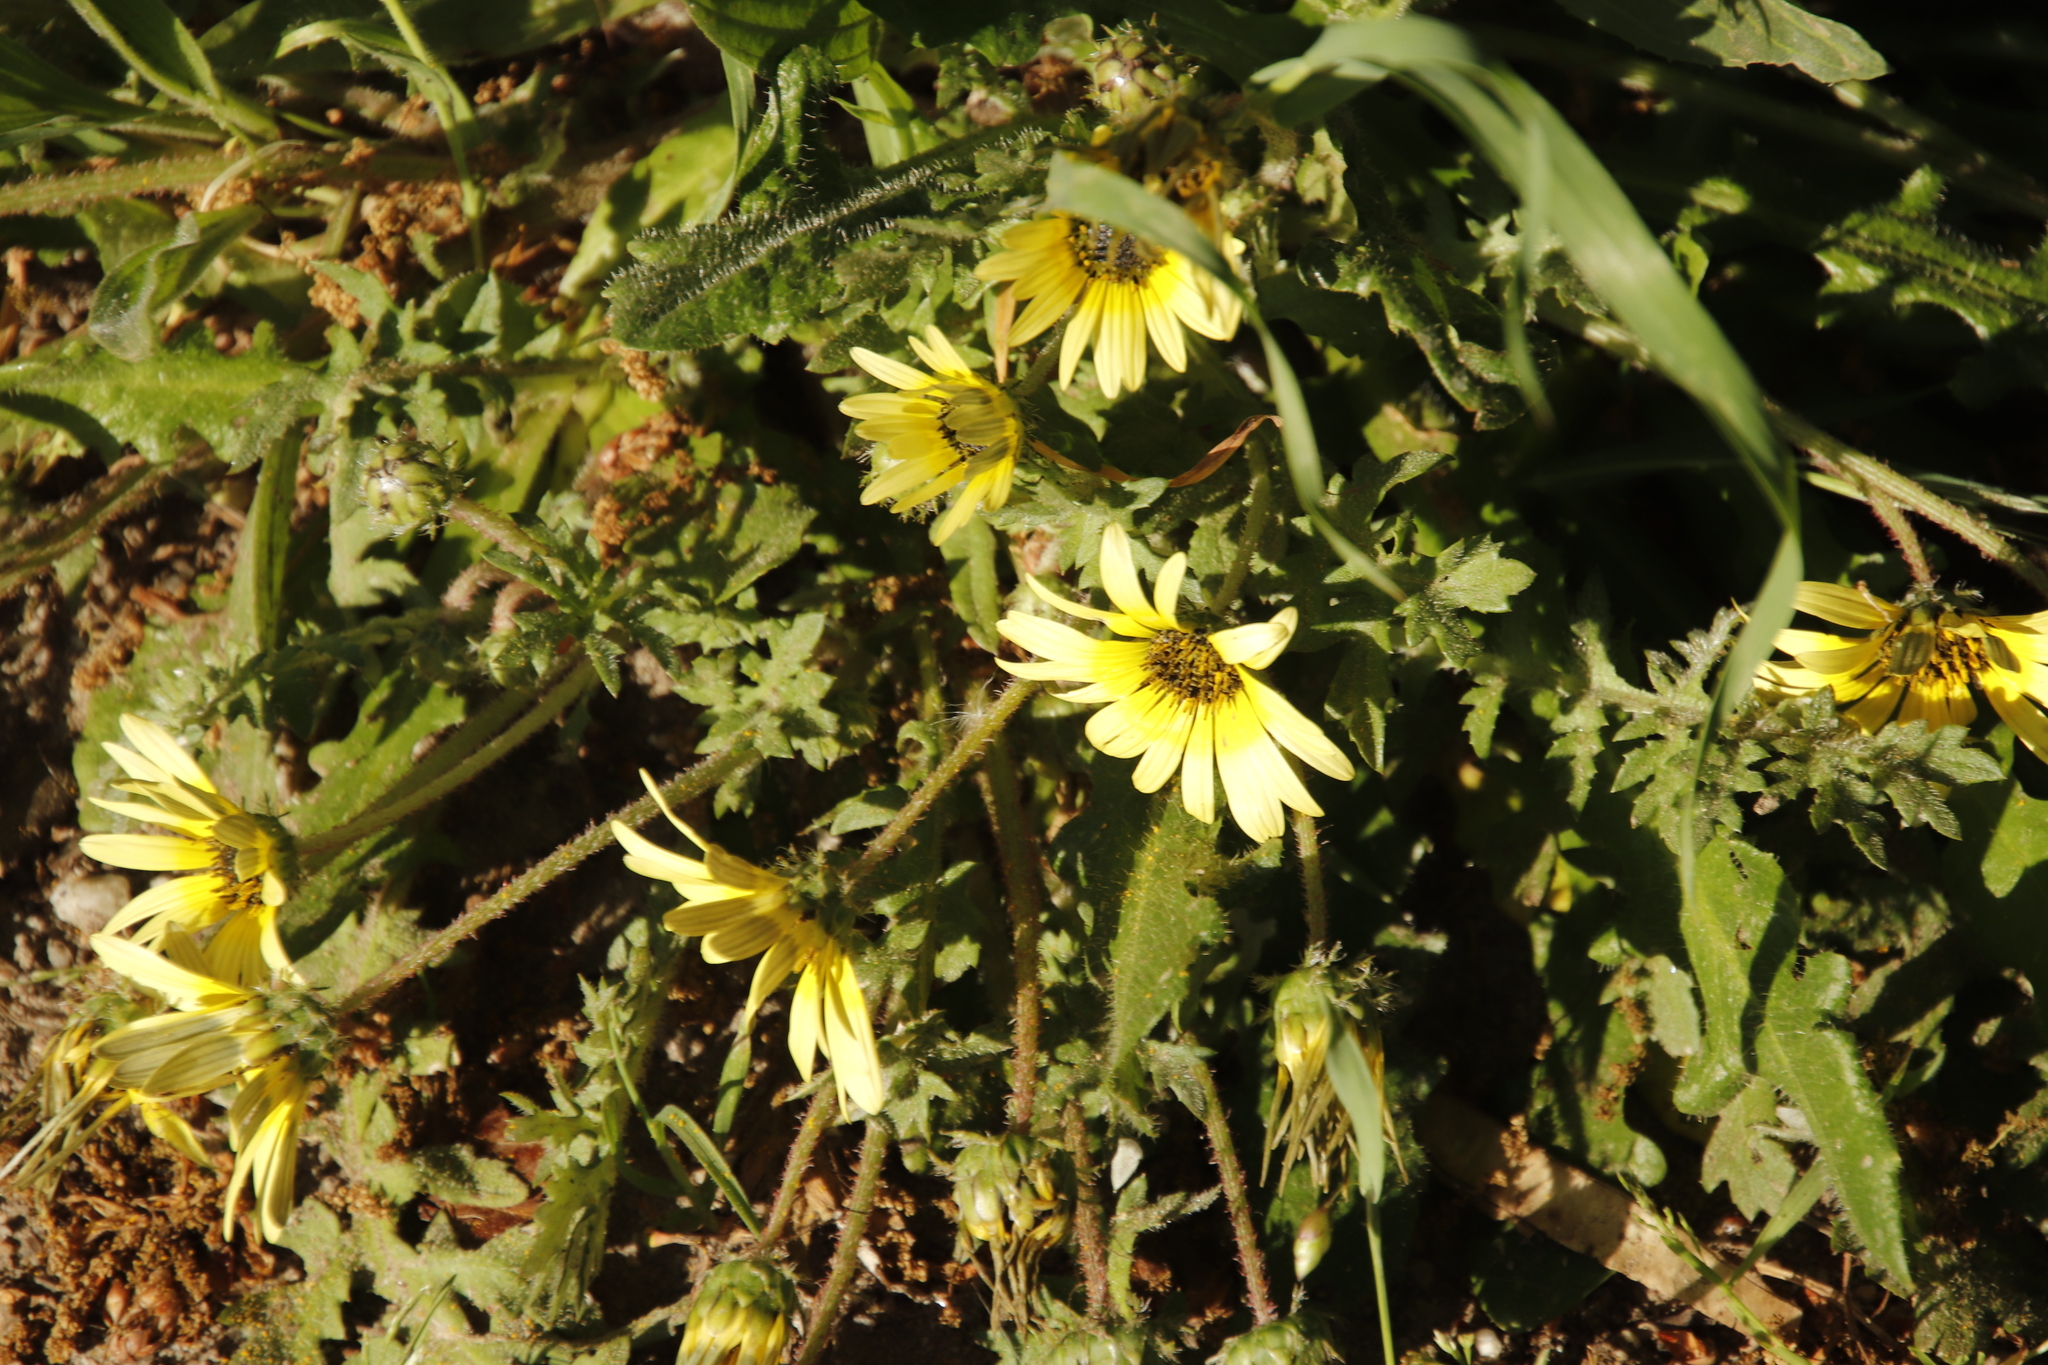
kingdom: Plantae
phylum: Tracheophyta
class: Magnoliopsida
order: Asterales
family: Asteraceae
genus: Arctotheca
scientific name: Arctotheca calendula
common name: Capeweed
